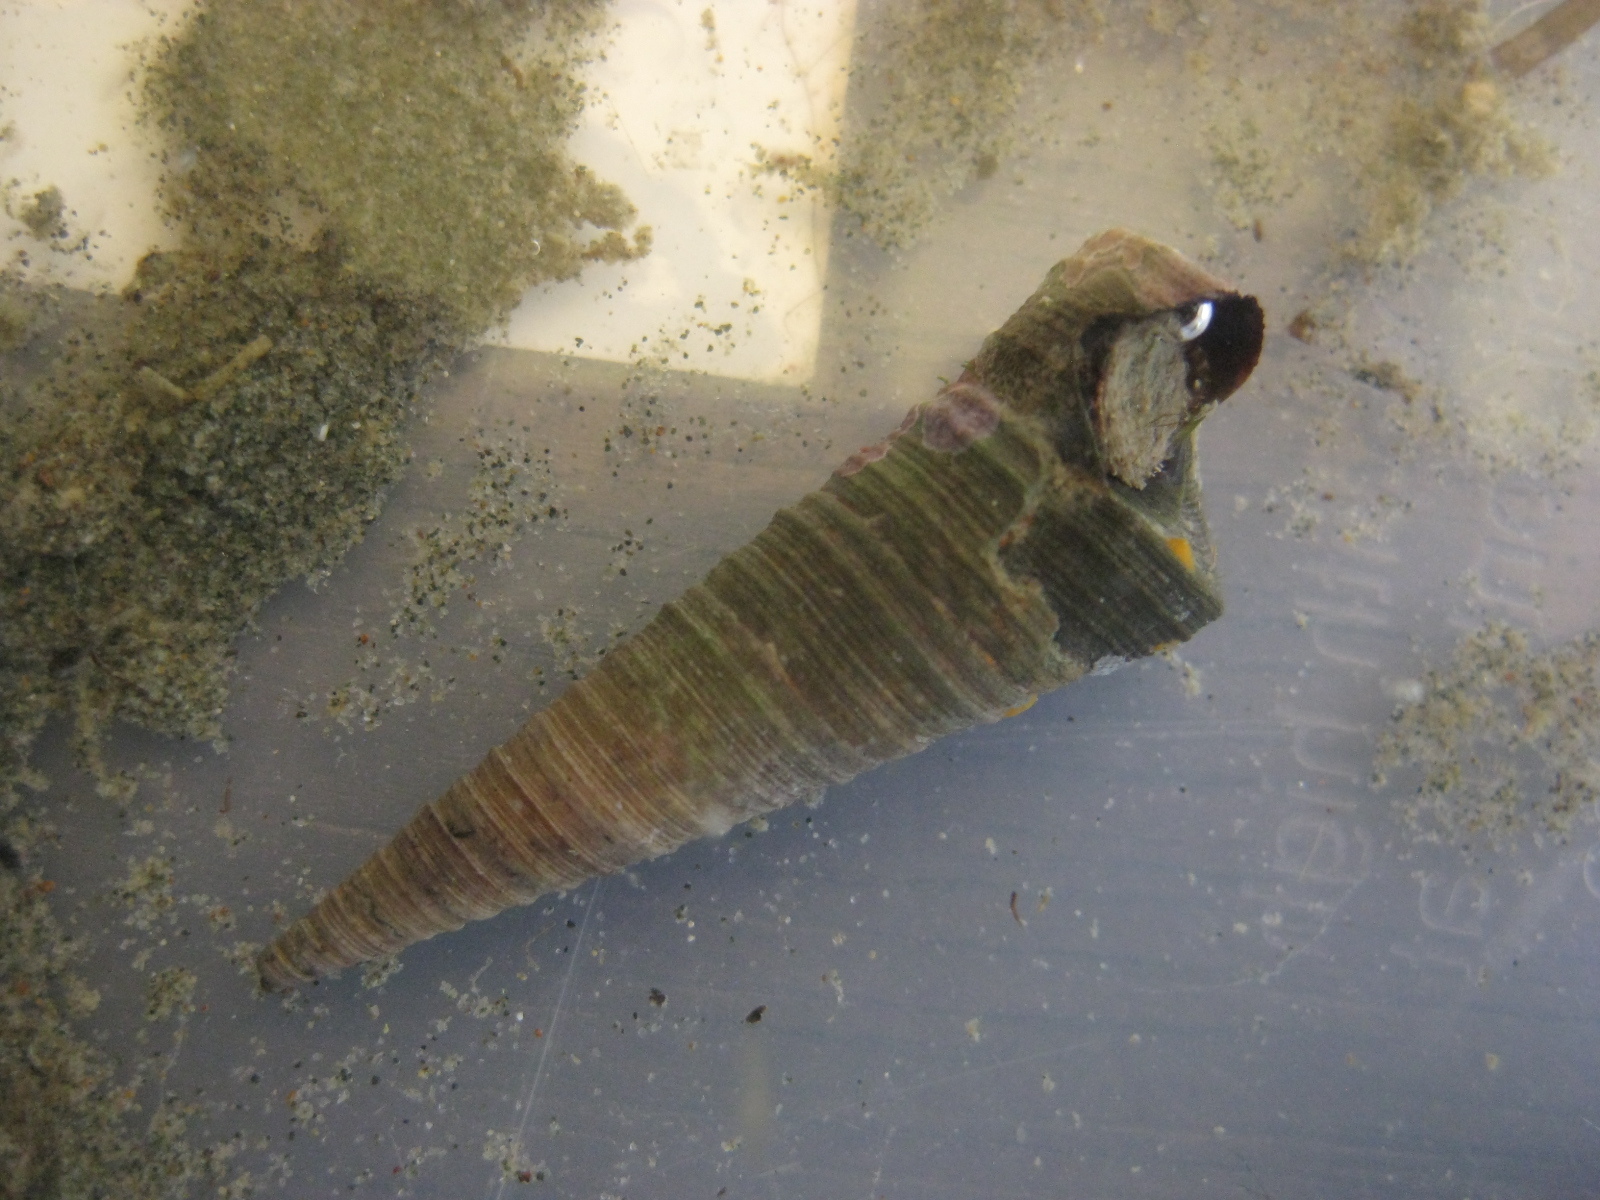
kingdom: Animalia
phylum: Mollusca
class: Gastropoda
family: Turritellidae
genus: Maoricolpus
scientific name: Maoricolpus roseus
